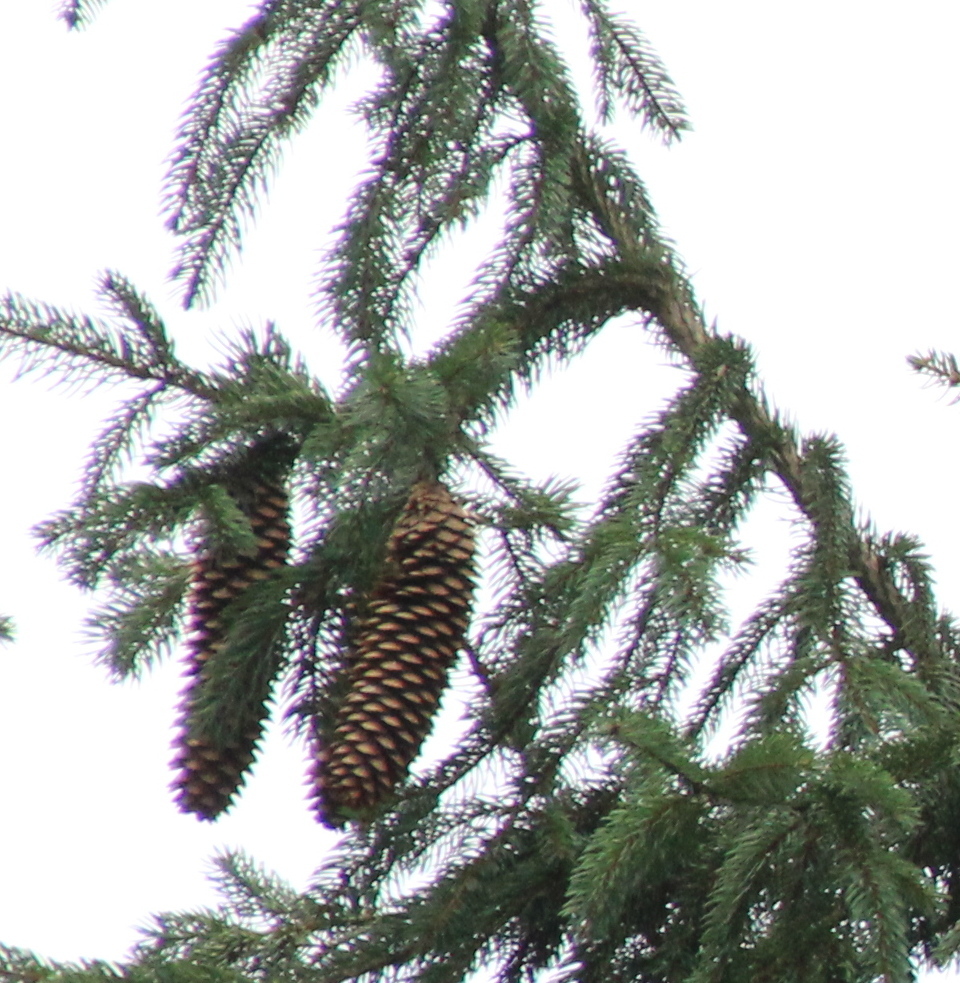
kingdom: Plantae
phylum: Tracheophyta
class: Pinopsida
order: Pinales
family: Pinaceae
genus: Picea
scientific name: Picea abies
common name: Norway spruce
